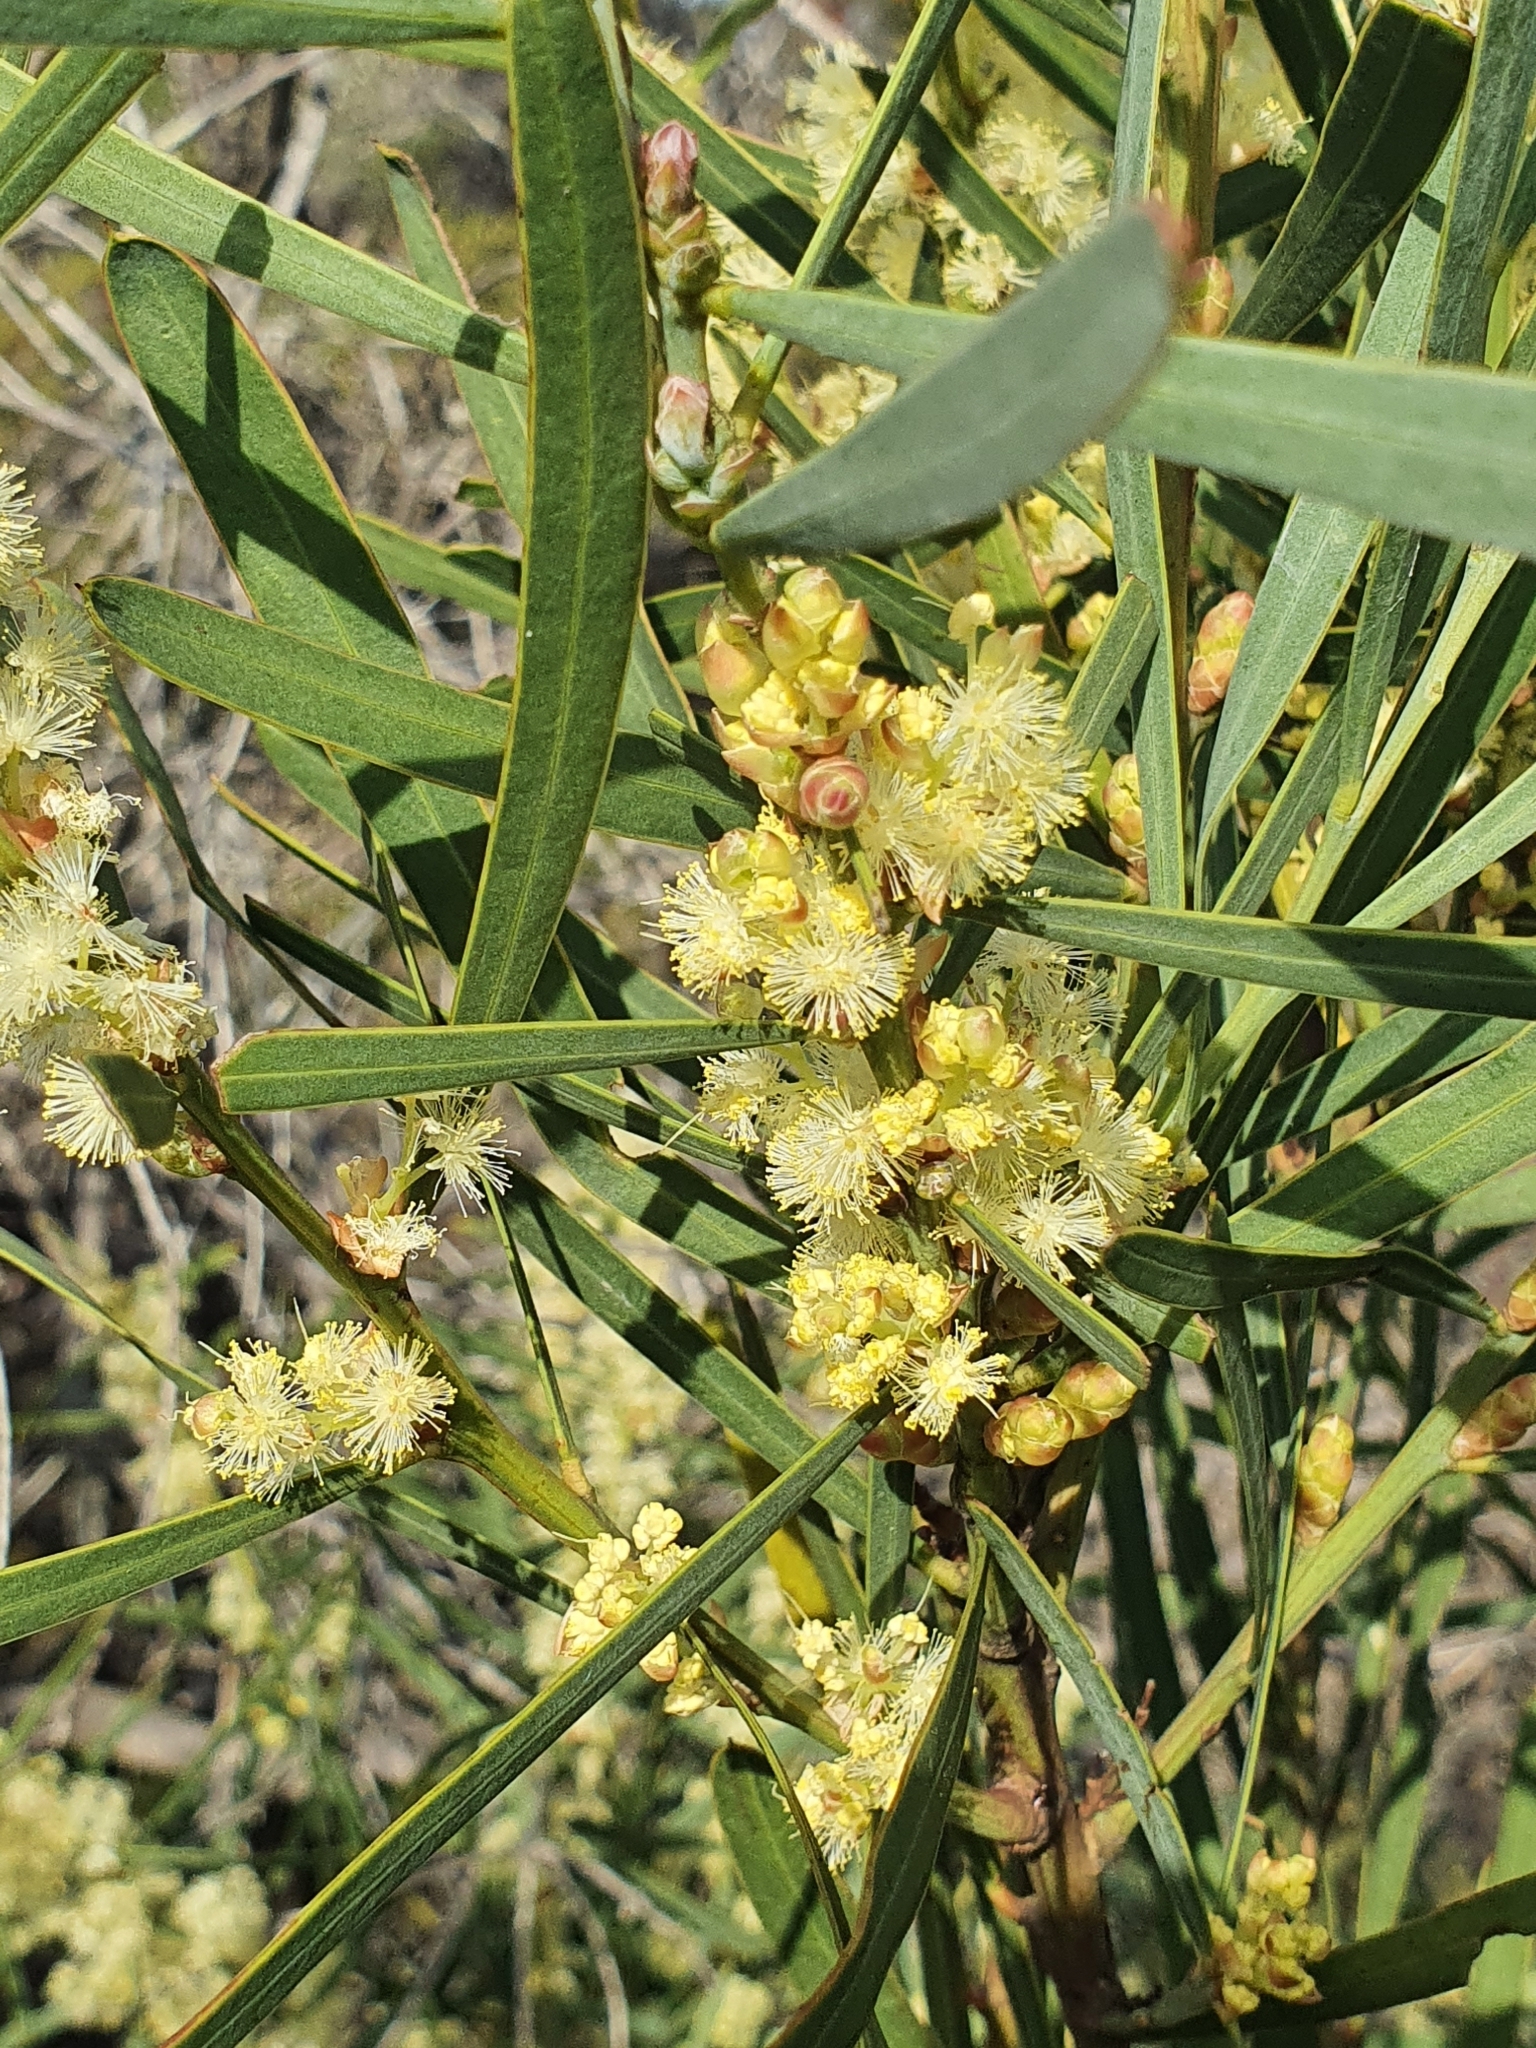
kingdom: Plantae
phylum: Tracheophyta
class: Magnoliopsida
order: Fabales
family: Fabaceae
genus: Acacia
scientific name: Acacia suaveolens
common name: Sweet acacia
